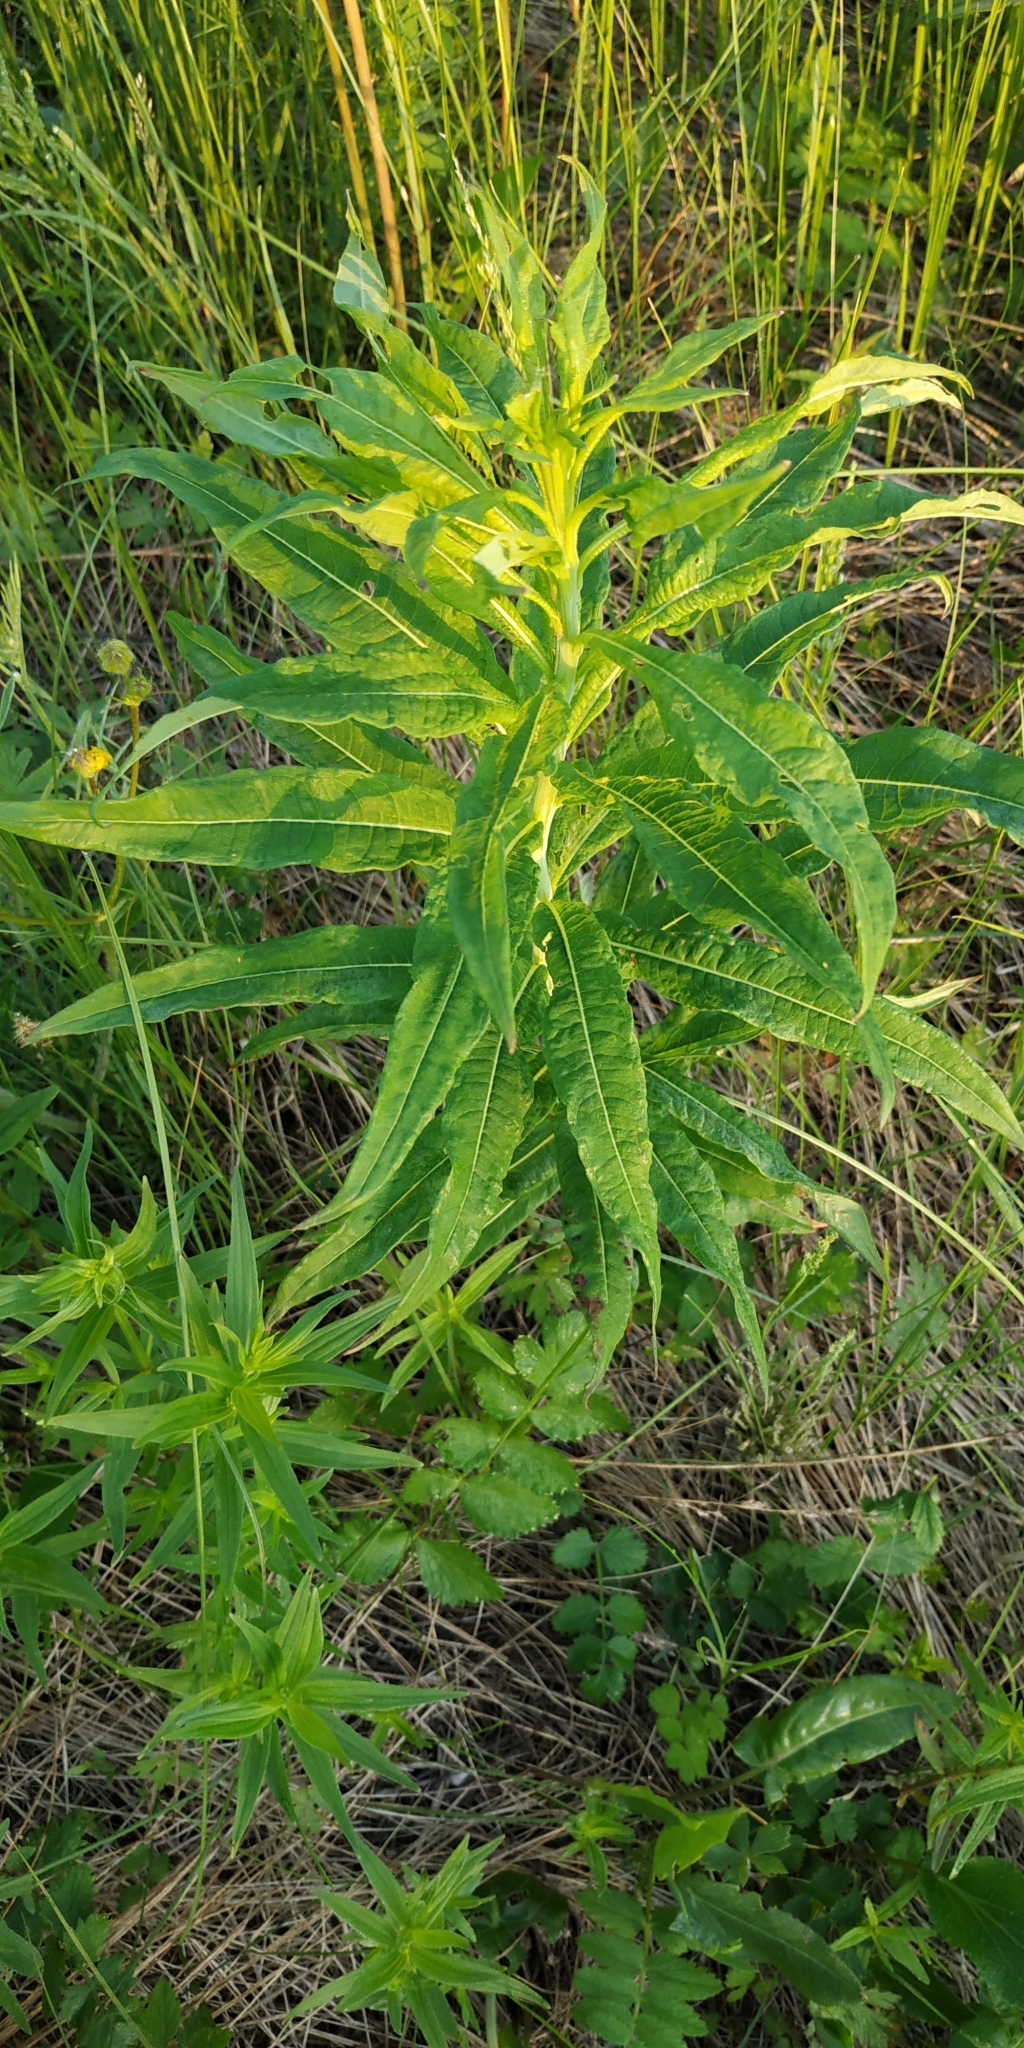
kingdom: Plantae
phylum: Tracheophyta
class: Magnoliopsida
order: Myrtales
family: Onagraceae
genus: Chamaenerion
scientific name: Chamaenerion angustifolium
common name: Fireweed
